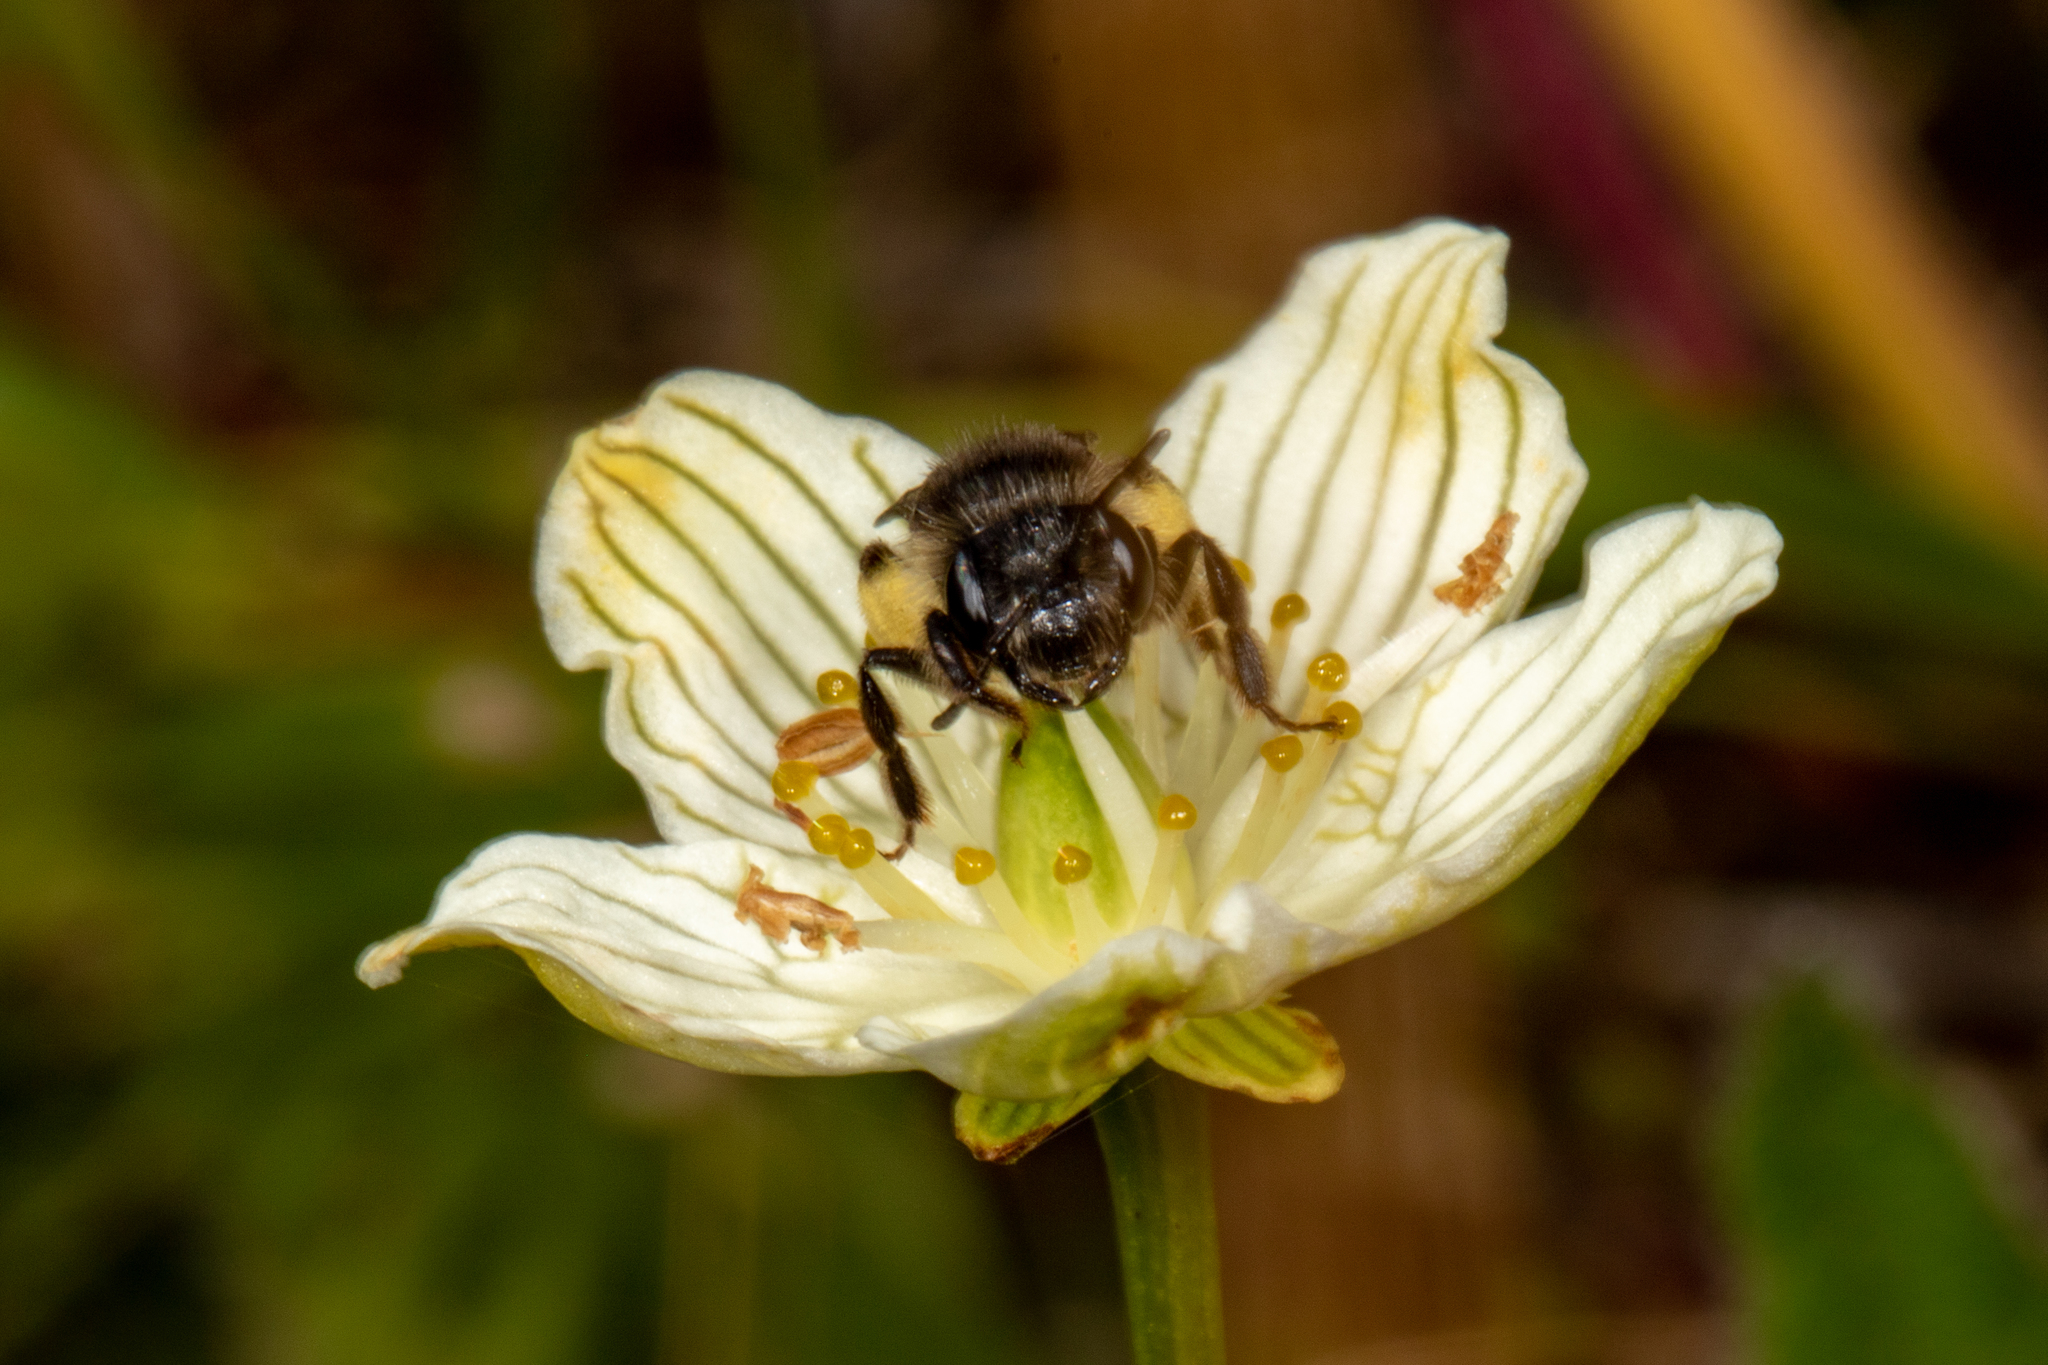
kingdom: Animalia
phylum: Arthropoda
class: Insecta
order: Hymenoptera
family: Andrenidae
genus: Andrena
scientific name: Andrena parnassiae
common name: Parnassia miner
